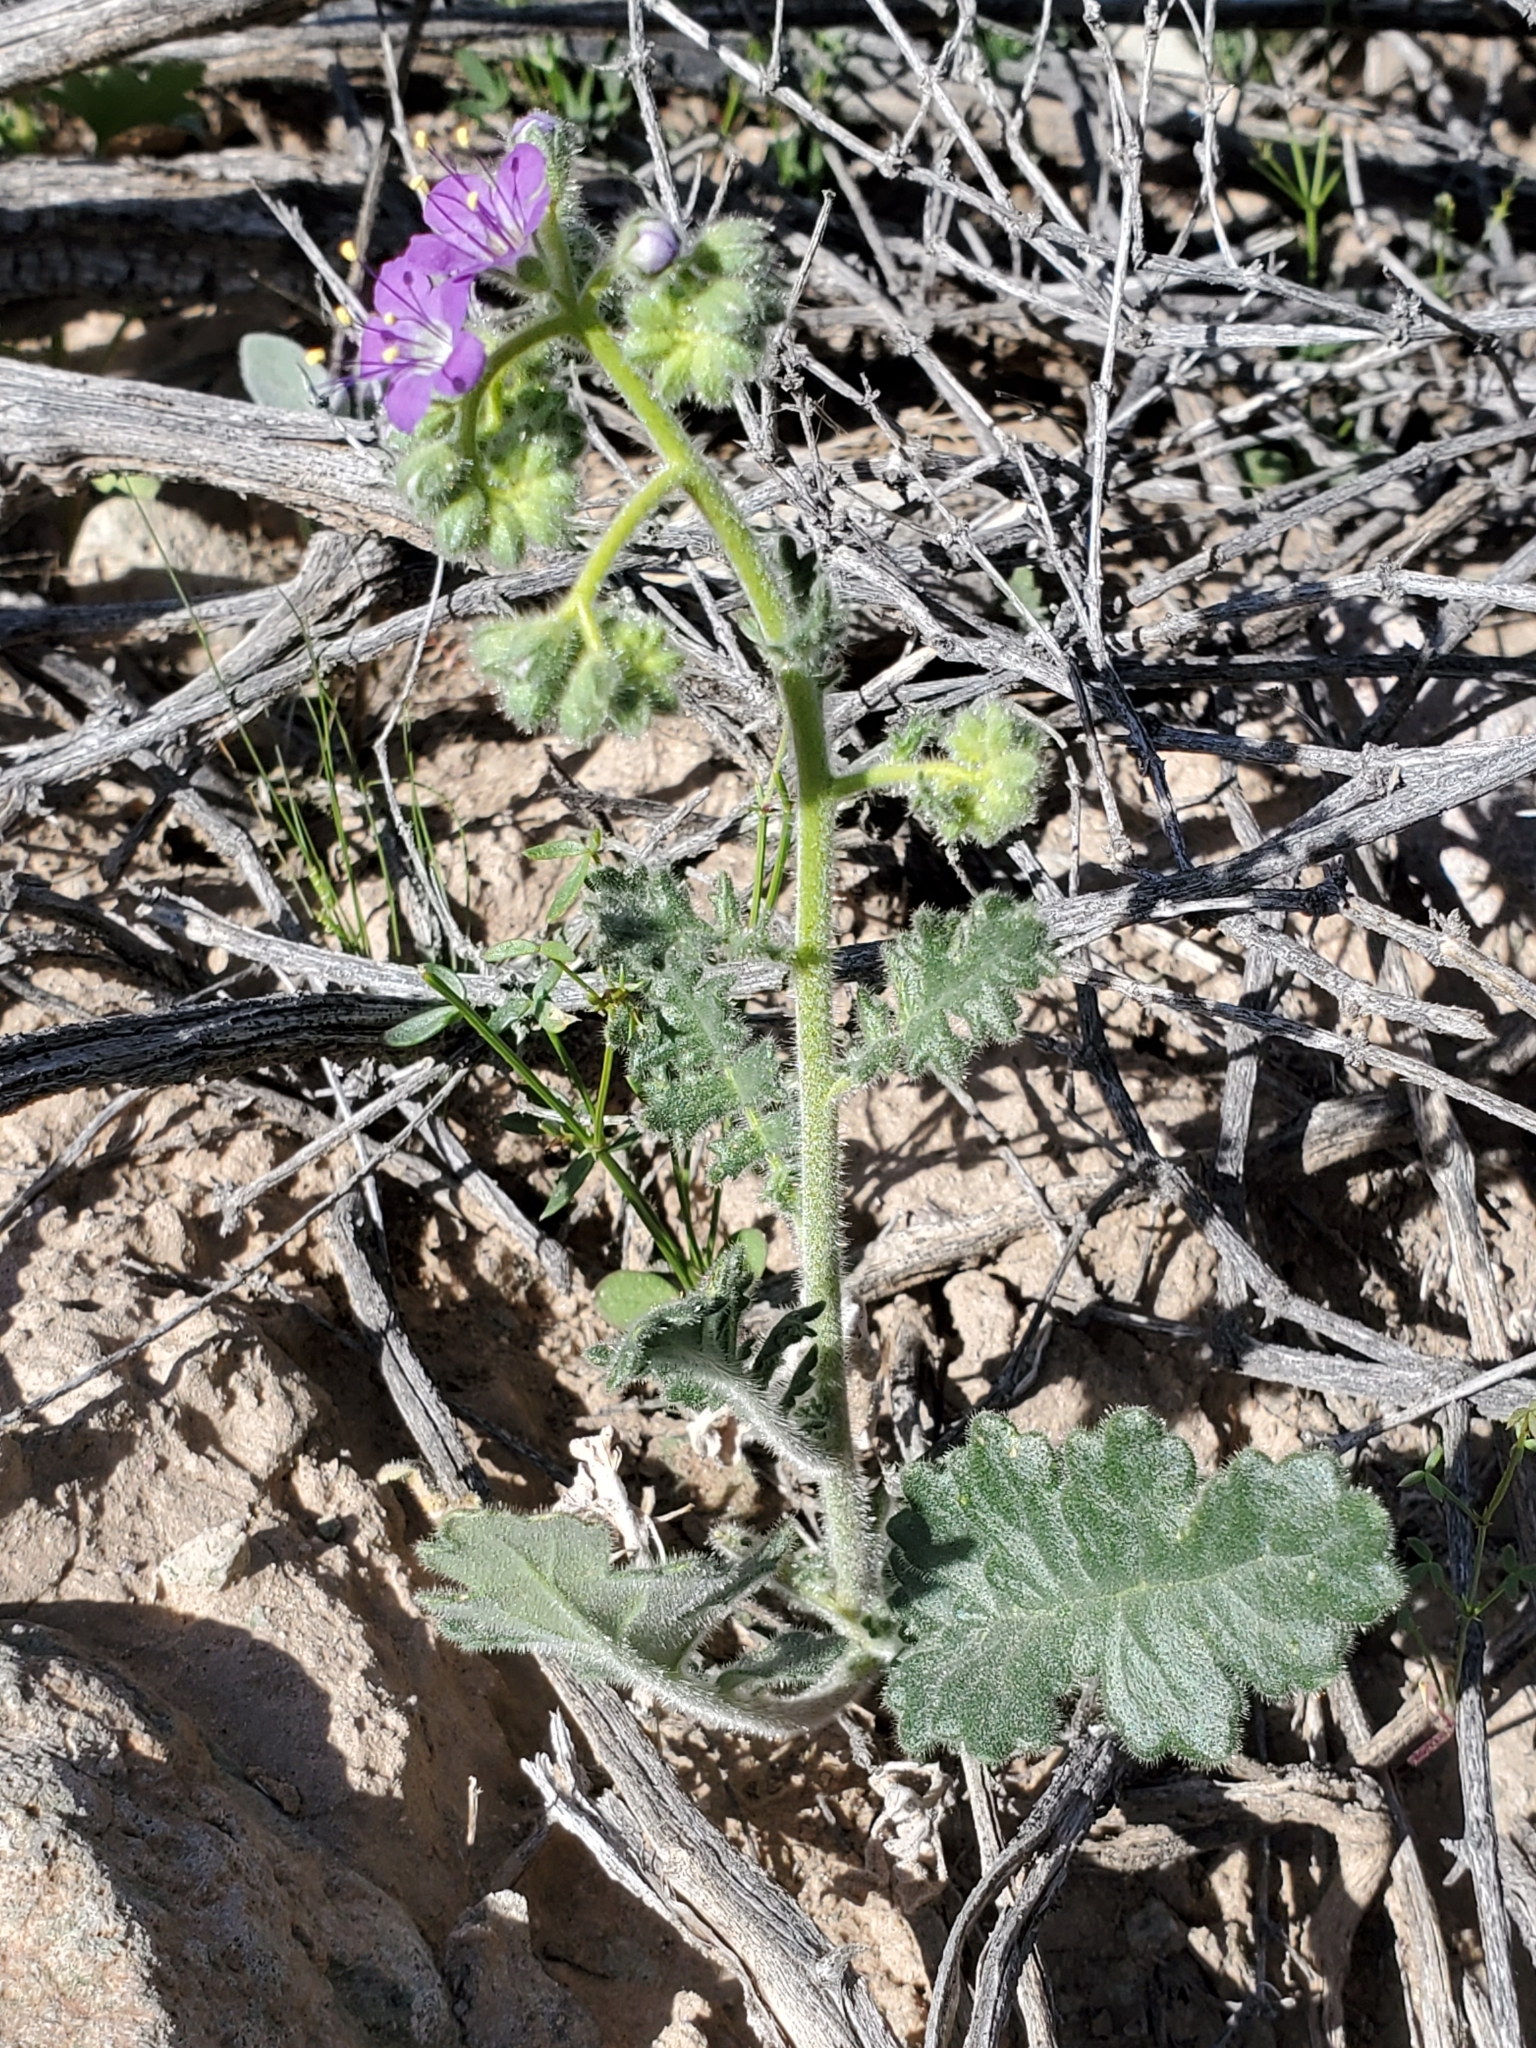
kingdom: Plantae
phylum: Tracheophyta
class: Magnoliopsida
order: Boraginales
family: Hydrophyllaceae
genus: Phacelia
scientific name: Phacelia crenulata
